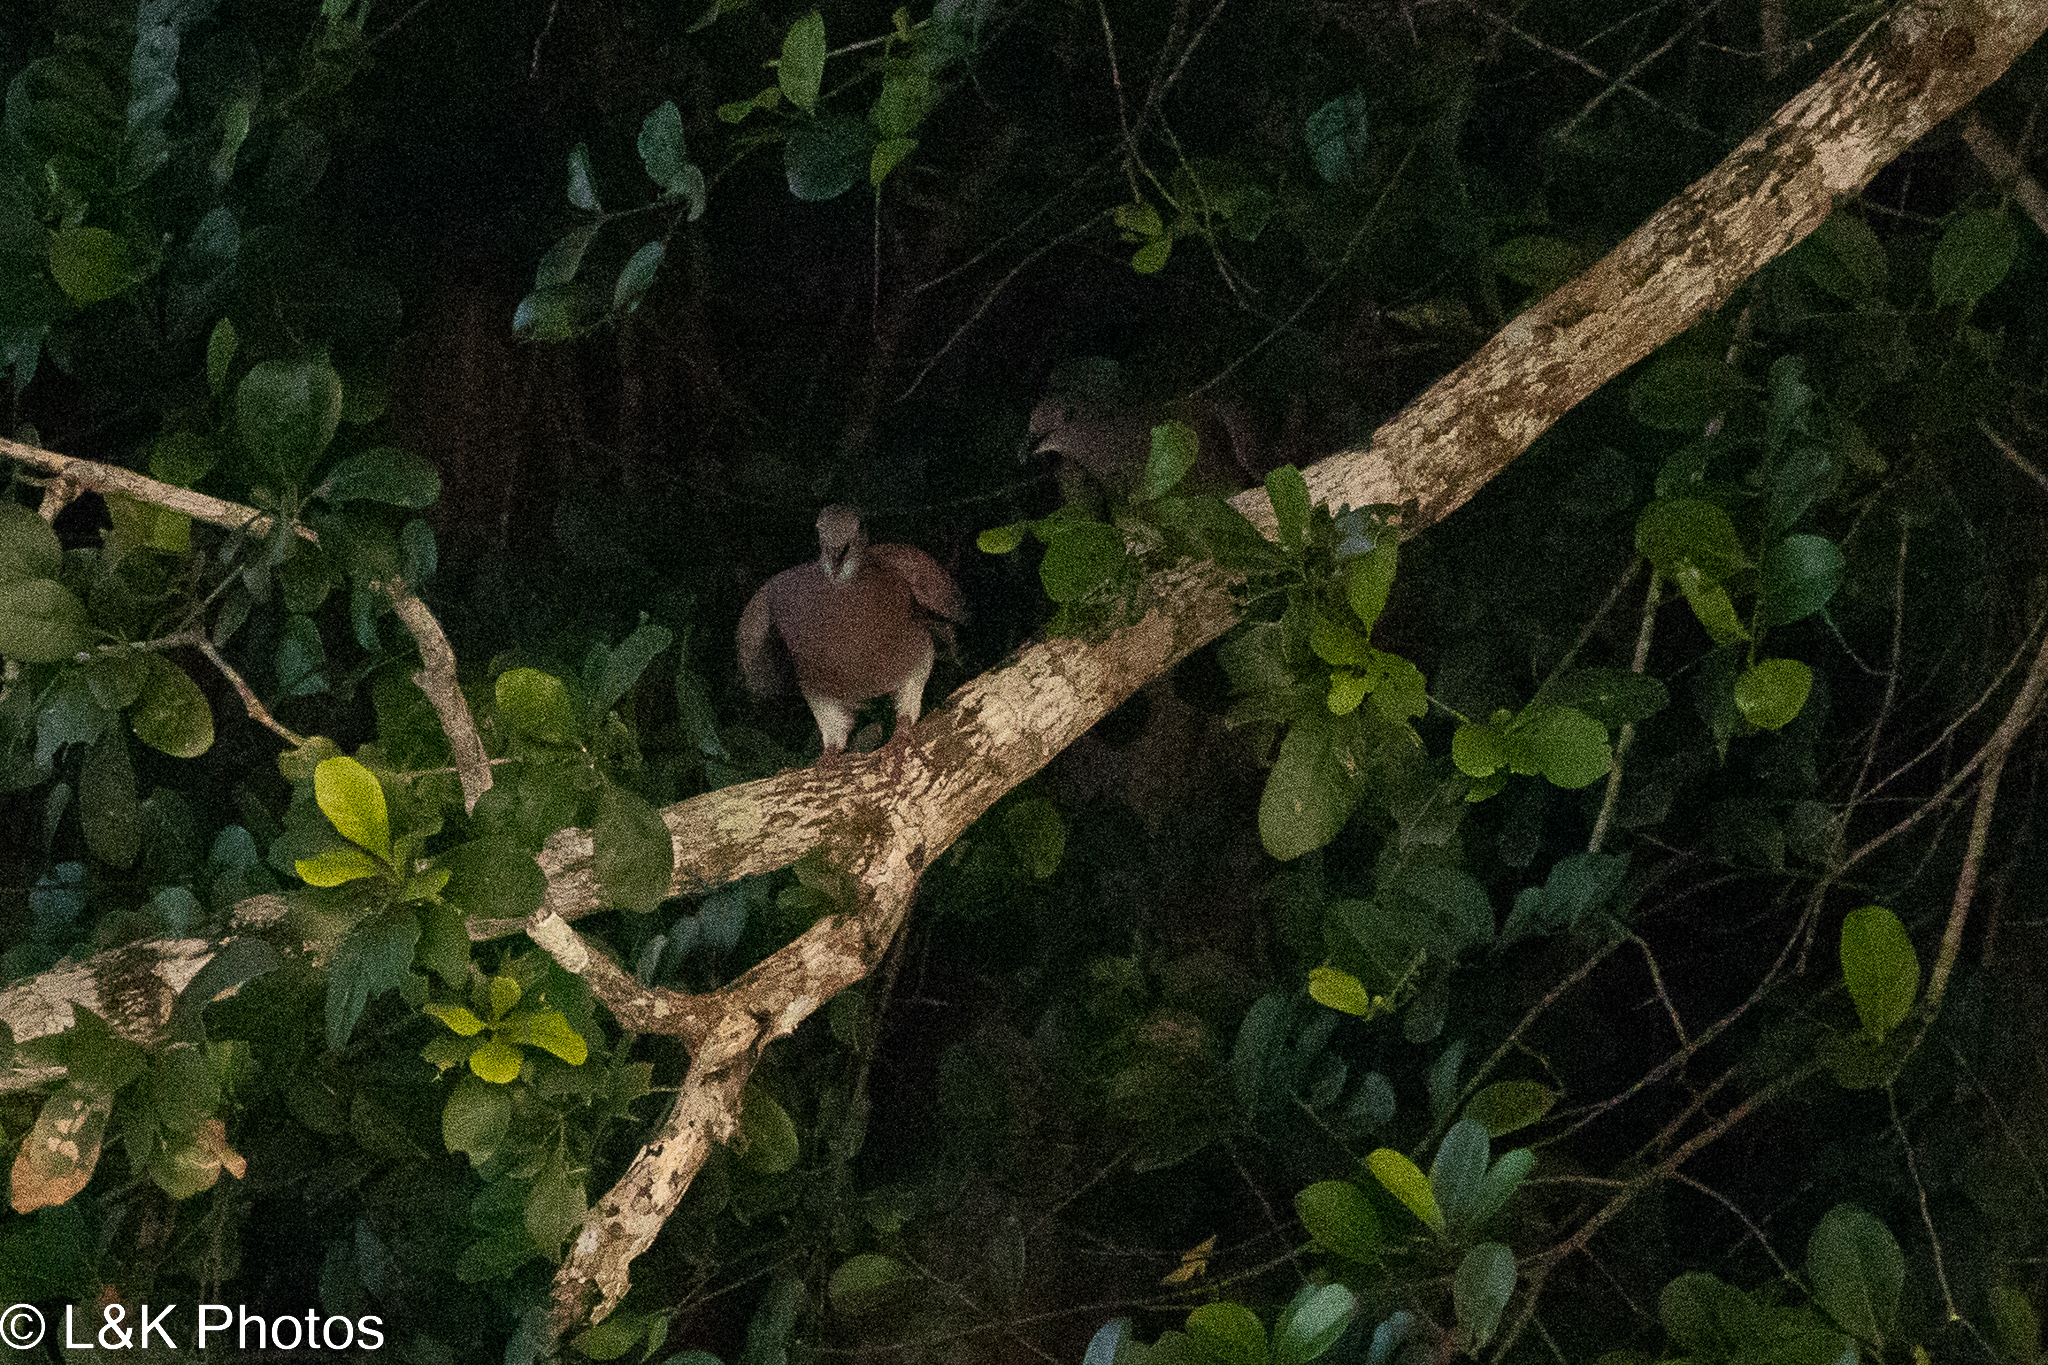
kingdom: Animalia
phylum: Chordata
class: Aves
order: Columbiformes
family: Columbidae
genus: Patagioenas
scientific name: Patagioenas cayennensis
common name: Pale-vented pigeon
